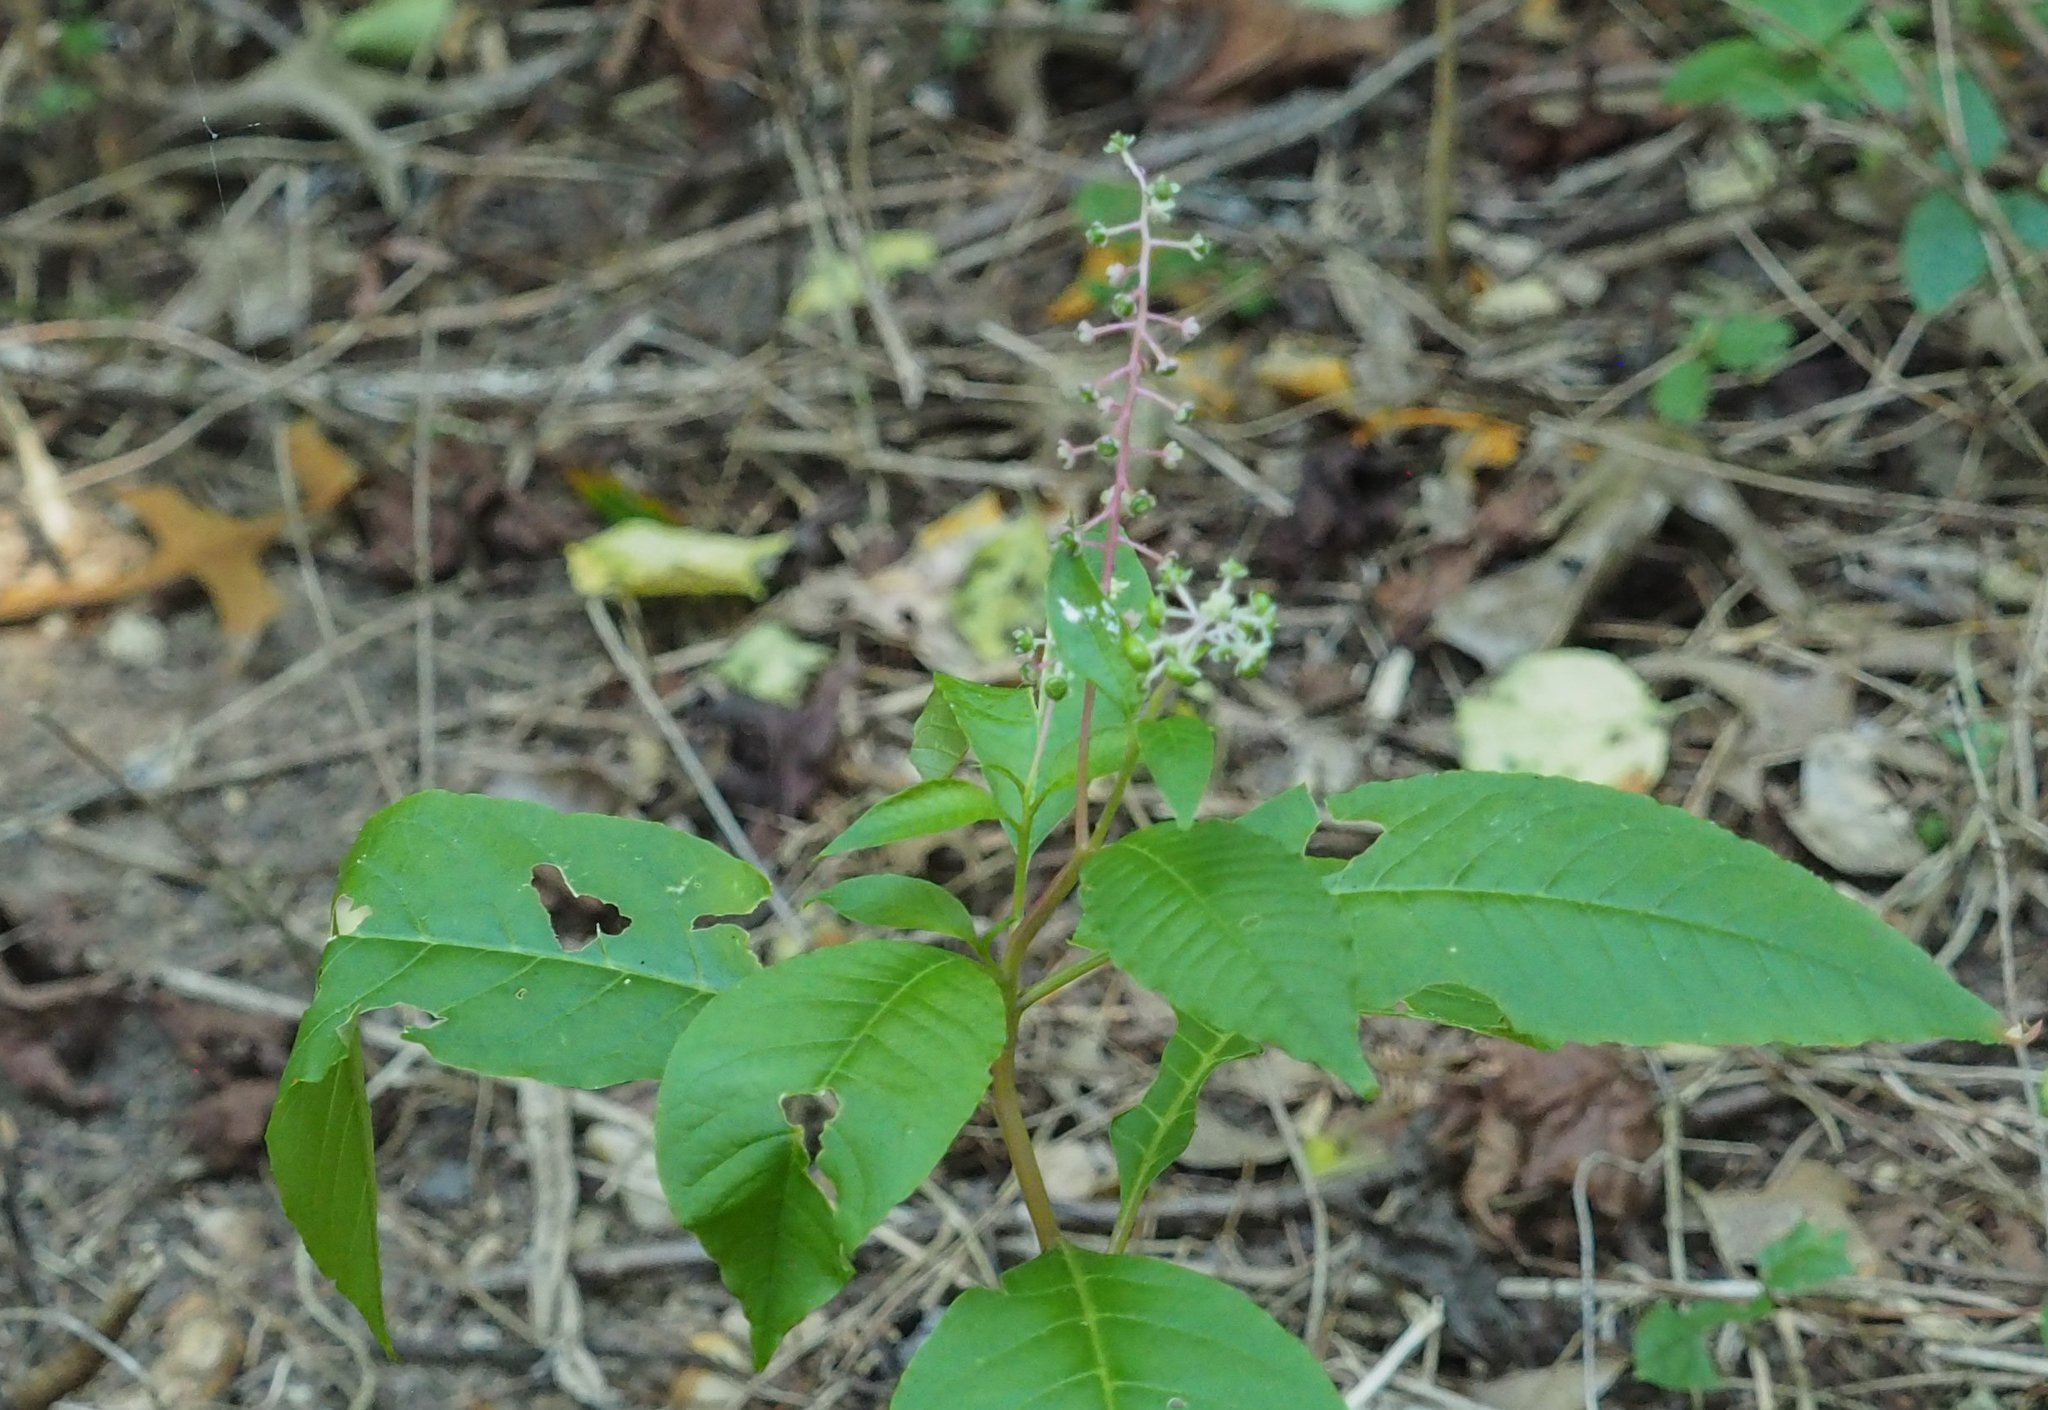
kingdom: Plantae
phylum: Tracheophyta
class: Magnoliopsida
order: Caryophyllales
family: Phytolaccaceae
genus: Phytolacca
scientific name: Phytolacca americana
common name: American pokeweed
